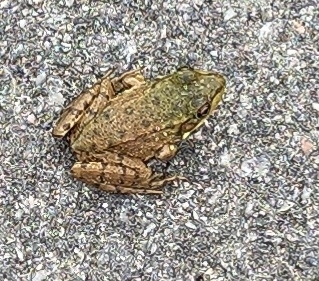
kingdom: Animalia
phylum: Chordata
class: Amphibia
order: Anura
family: Ranidae
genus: Lithobates
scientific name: Lithobates clamitans
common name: Green frog
